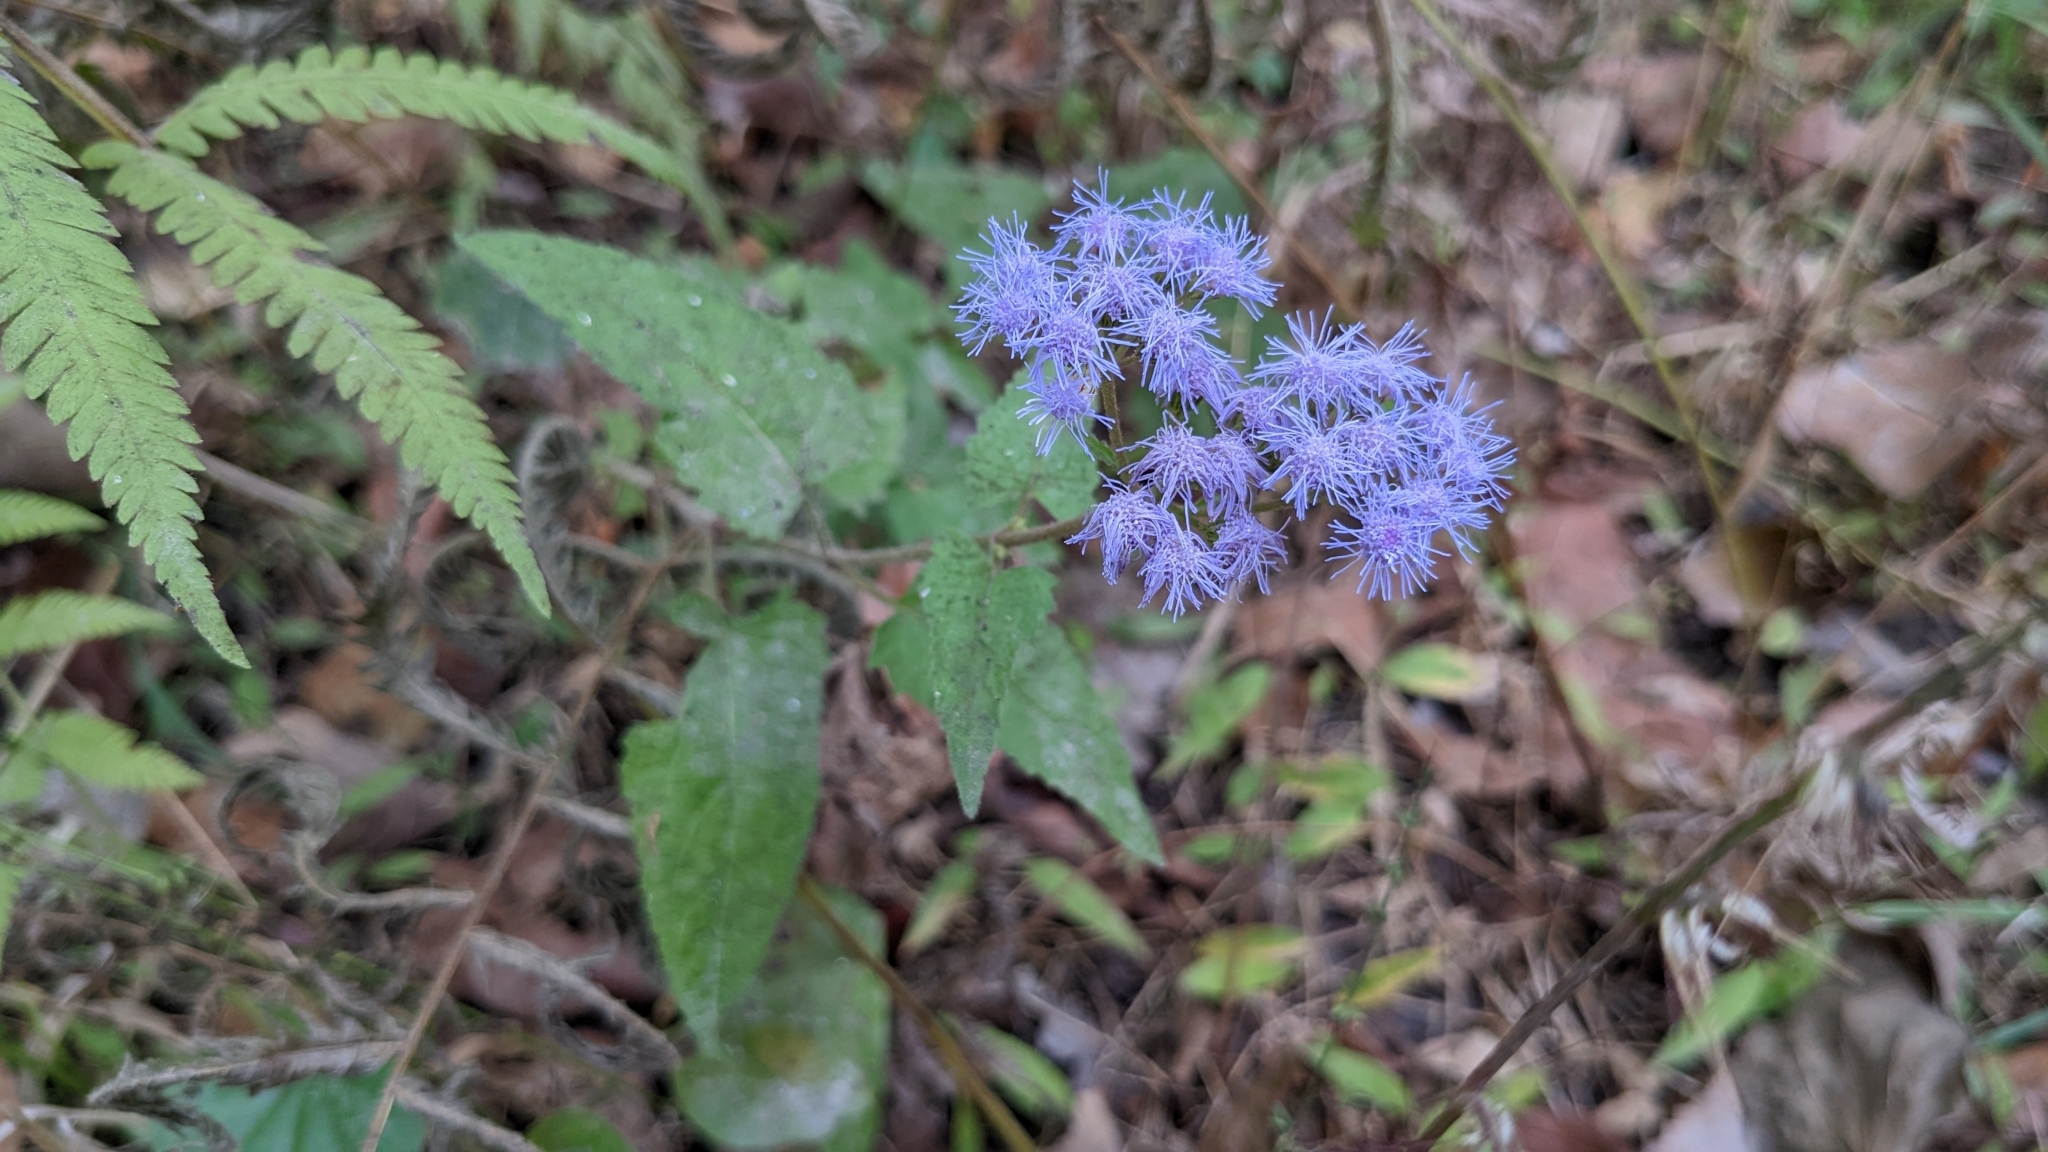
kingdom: Plantae
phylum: Tracheophyta
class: Magnoliopsida
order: Asterales
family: Asteraceae
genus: Conoclinium
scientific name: Conoclinium coelestinum
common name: Blue mistflower
